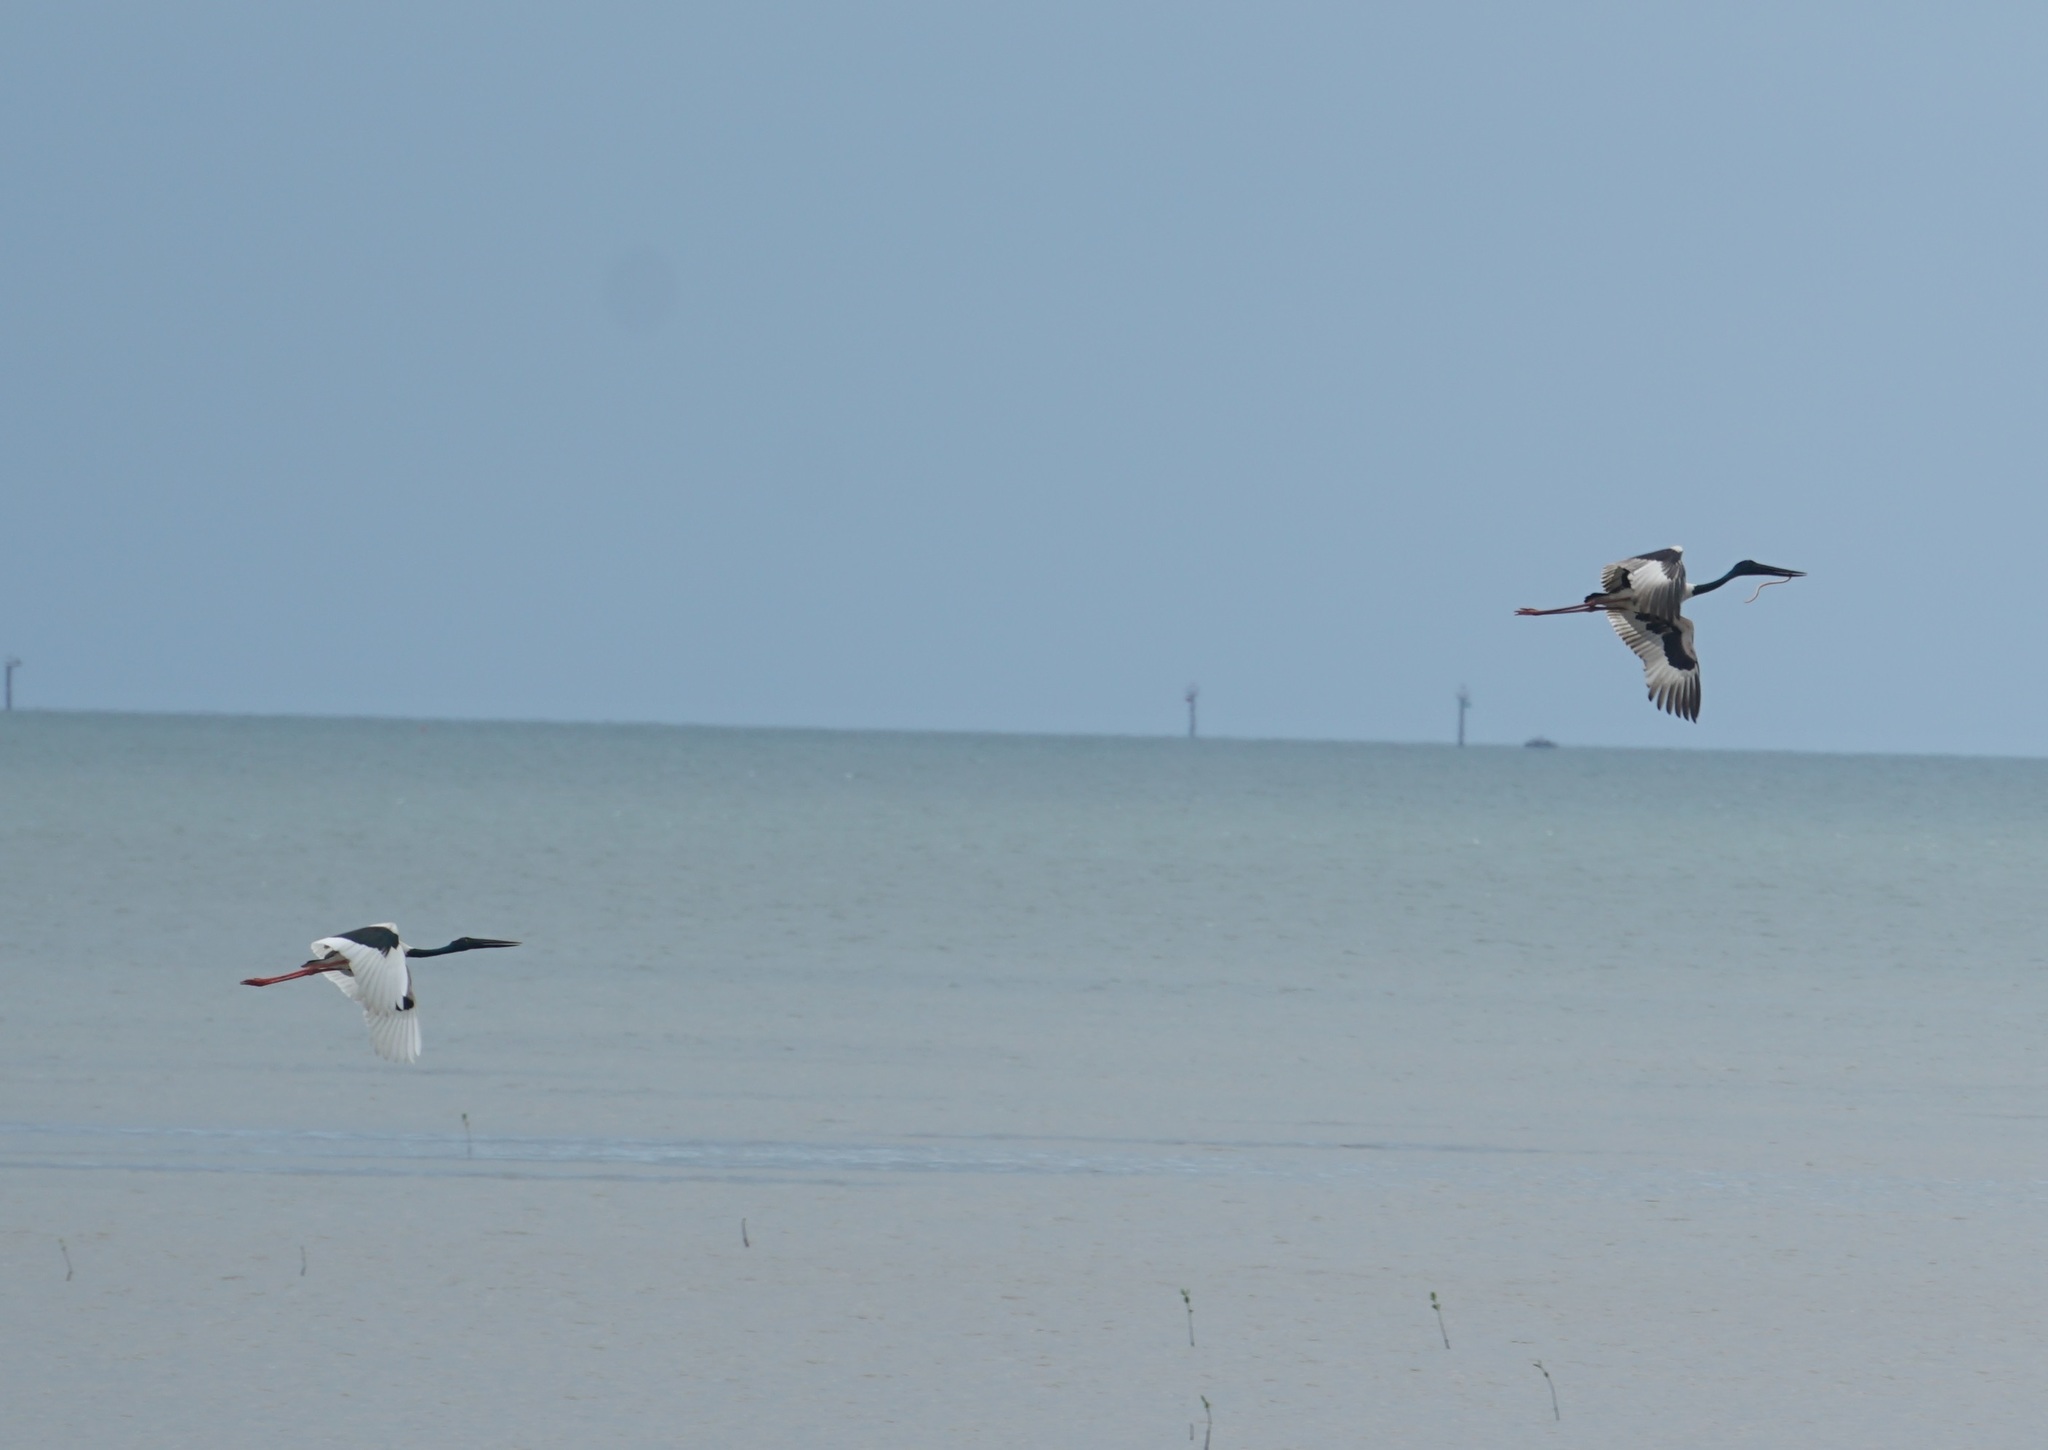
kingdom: Animalia
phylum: Chordata
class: Aves
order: Ciconiiformes
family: Ciconiidae
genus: Ephippiorhynchus
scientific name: Ephippiorhynchus asiaticus
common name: Black-necked stork
